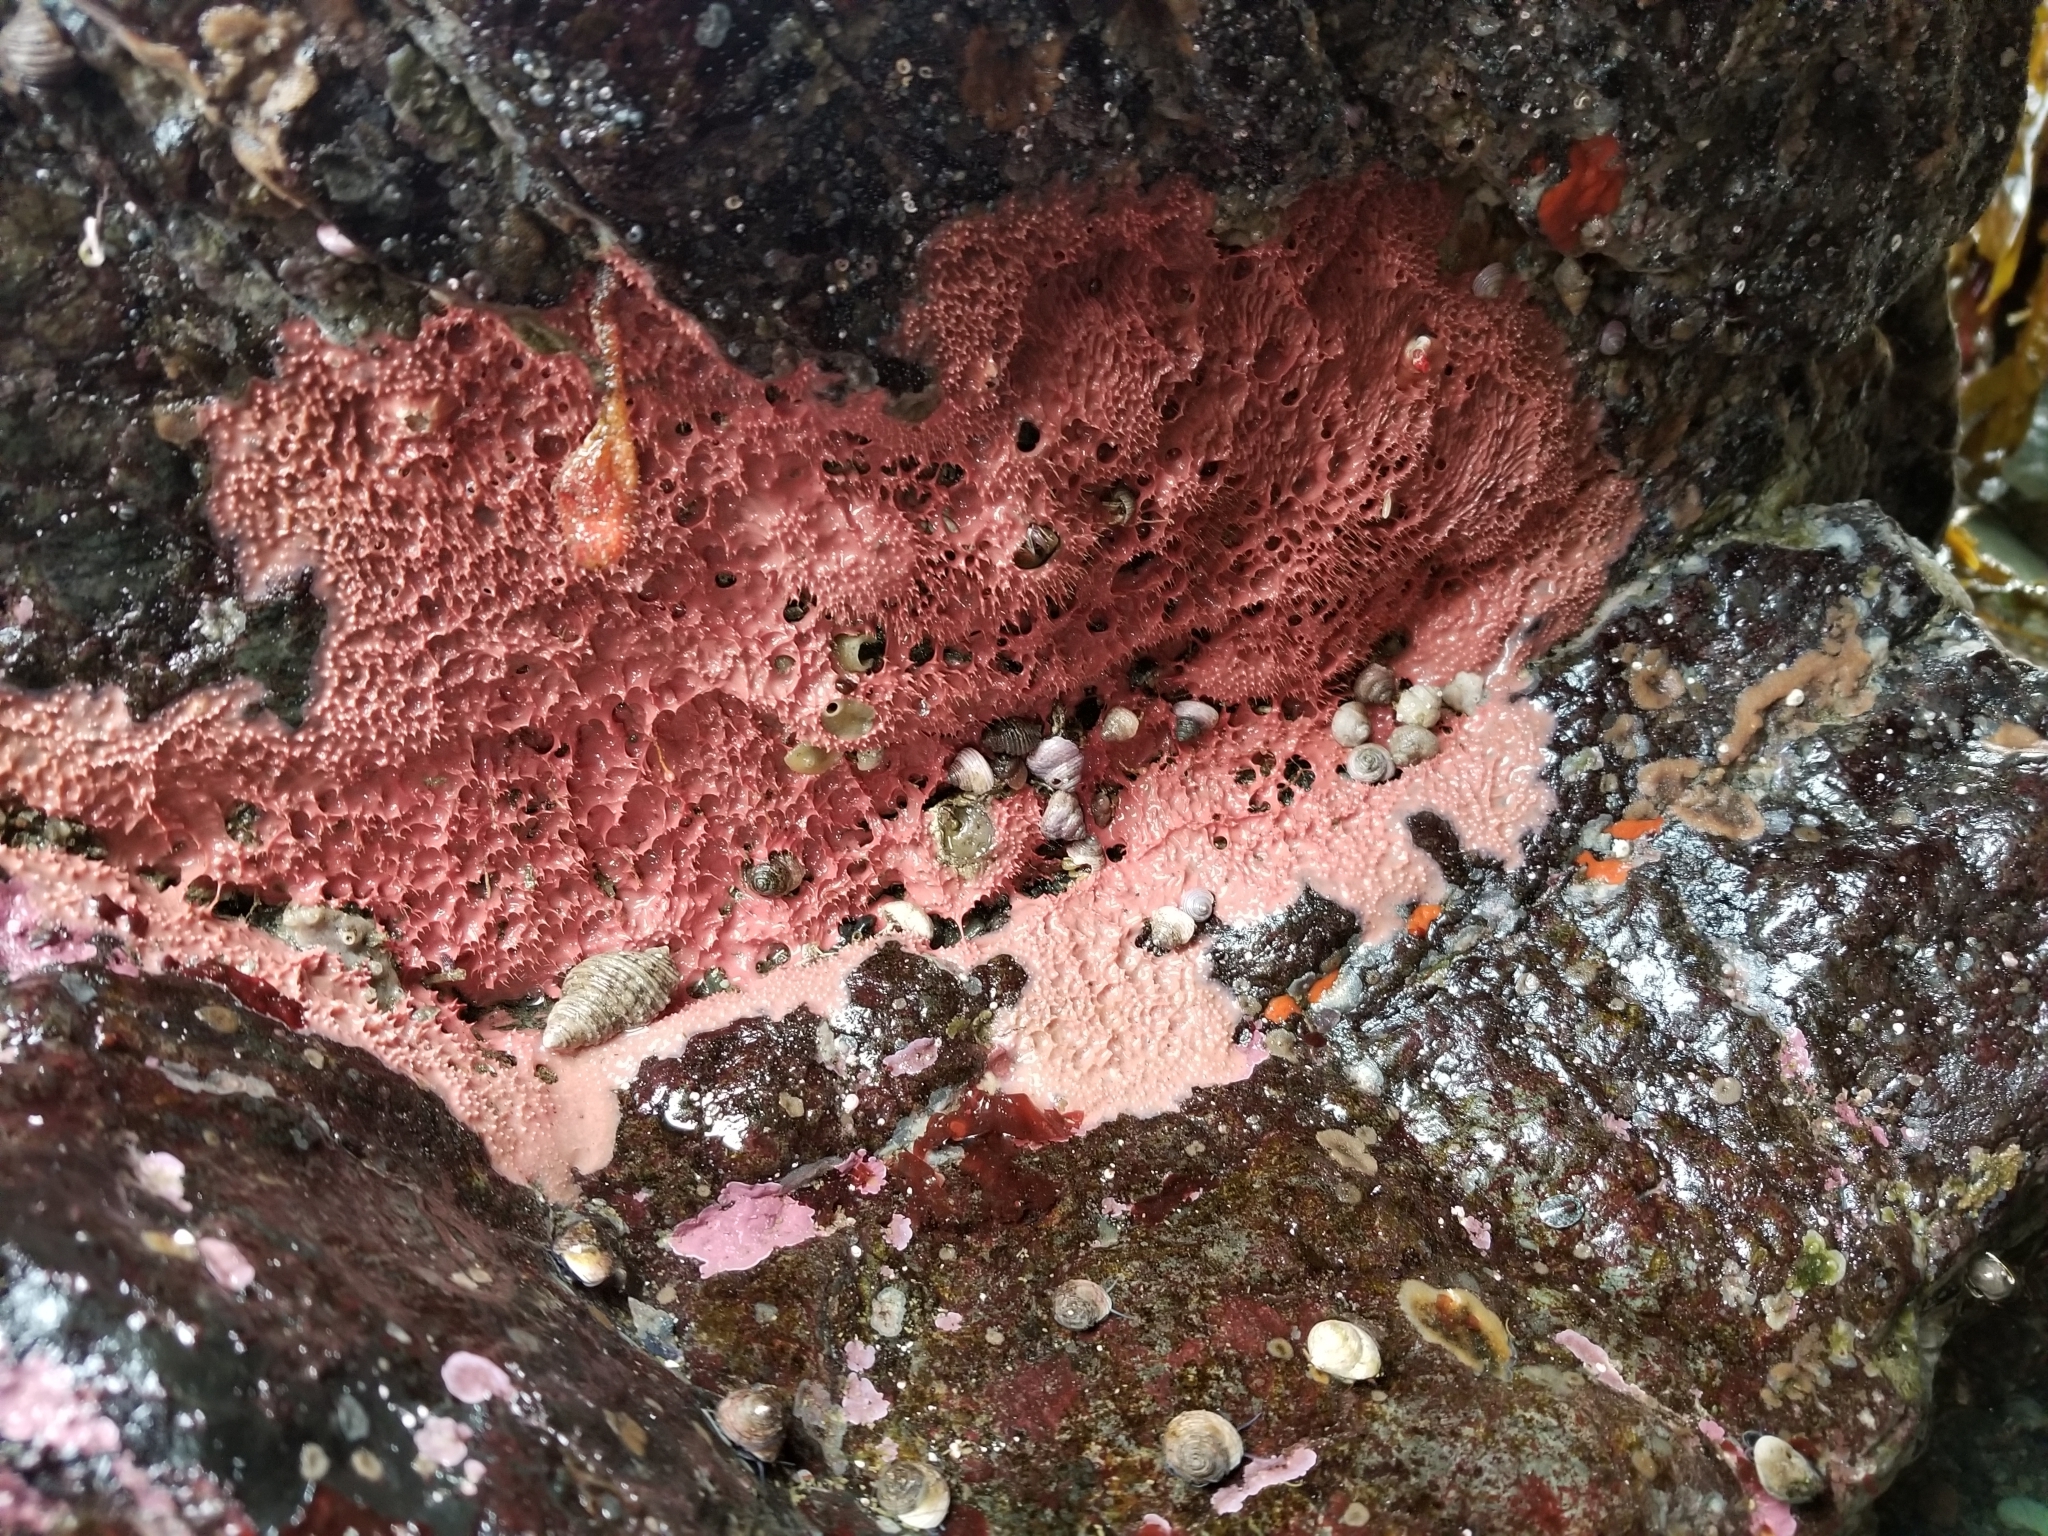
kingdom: Animalia
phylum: Porifera
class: Demospongiae
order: Dendroceratida
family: Darwinellidae
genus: Aplysilla
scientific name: Aplysilla glacialis
